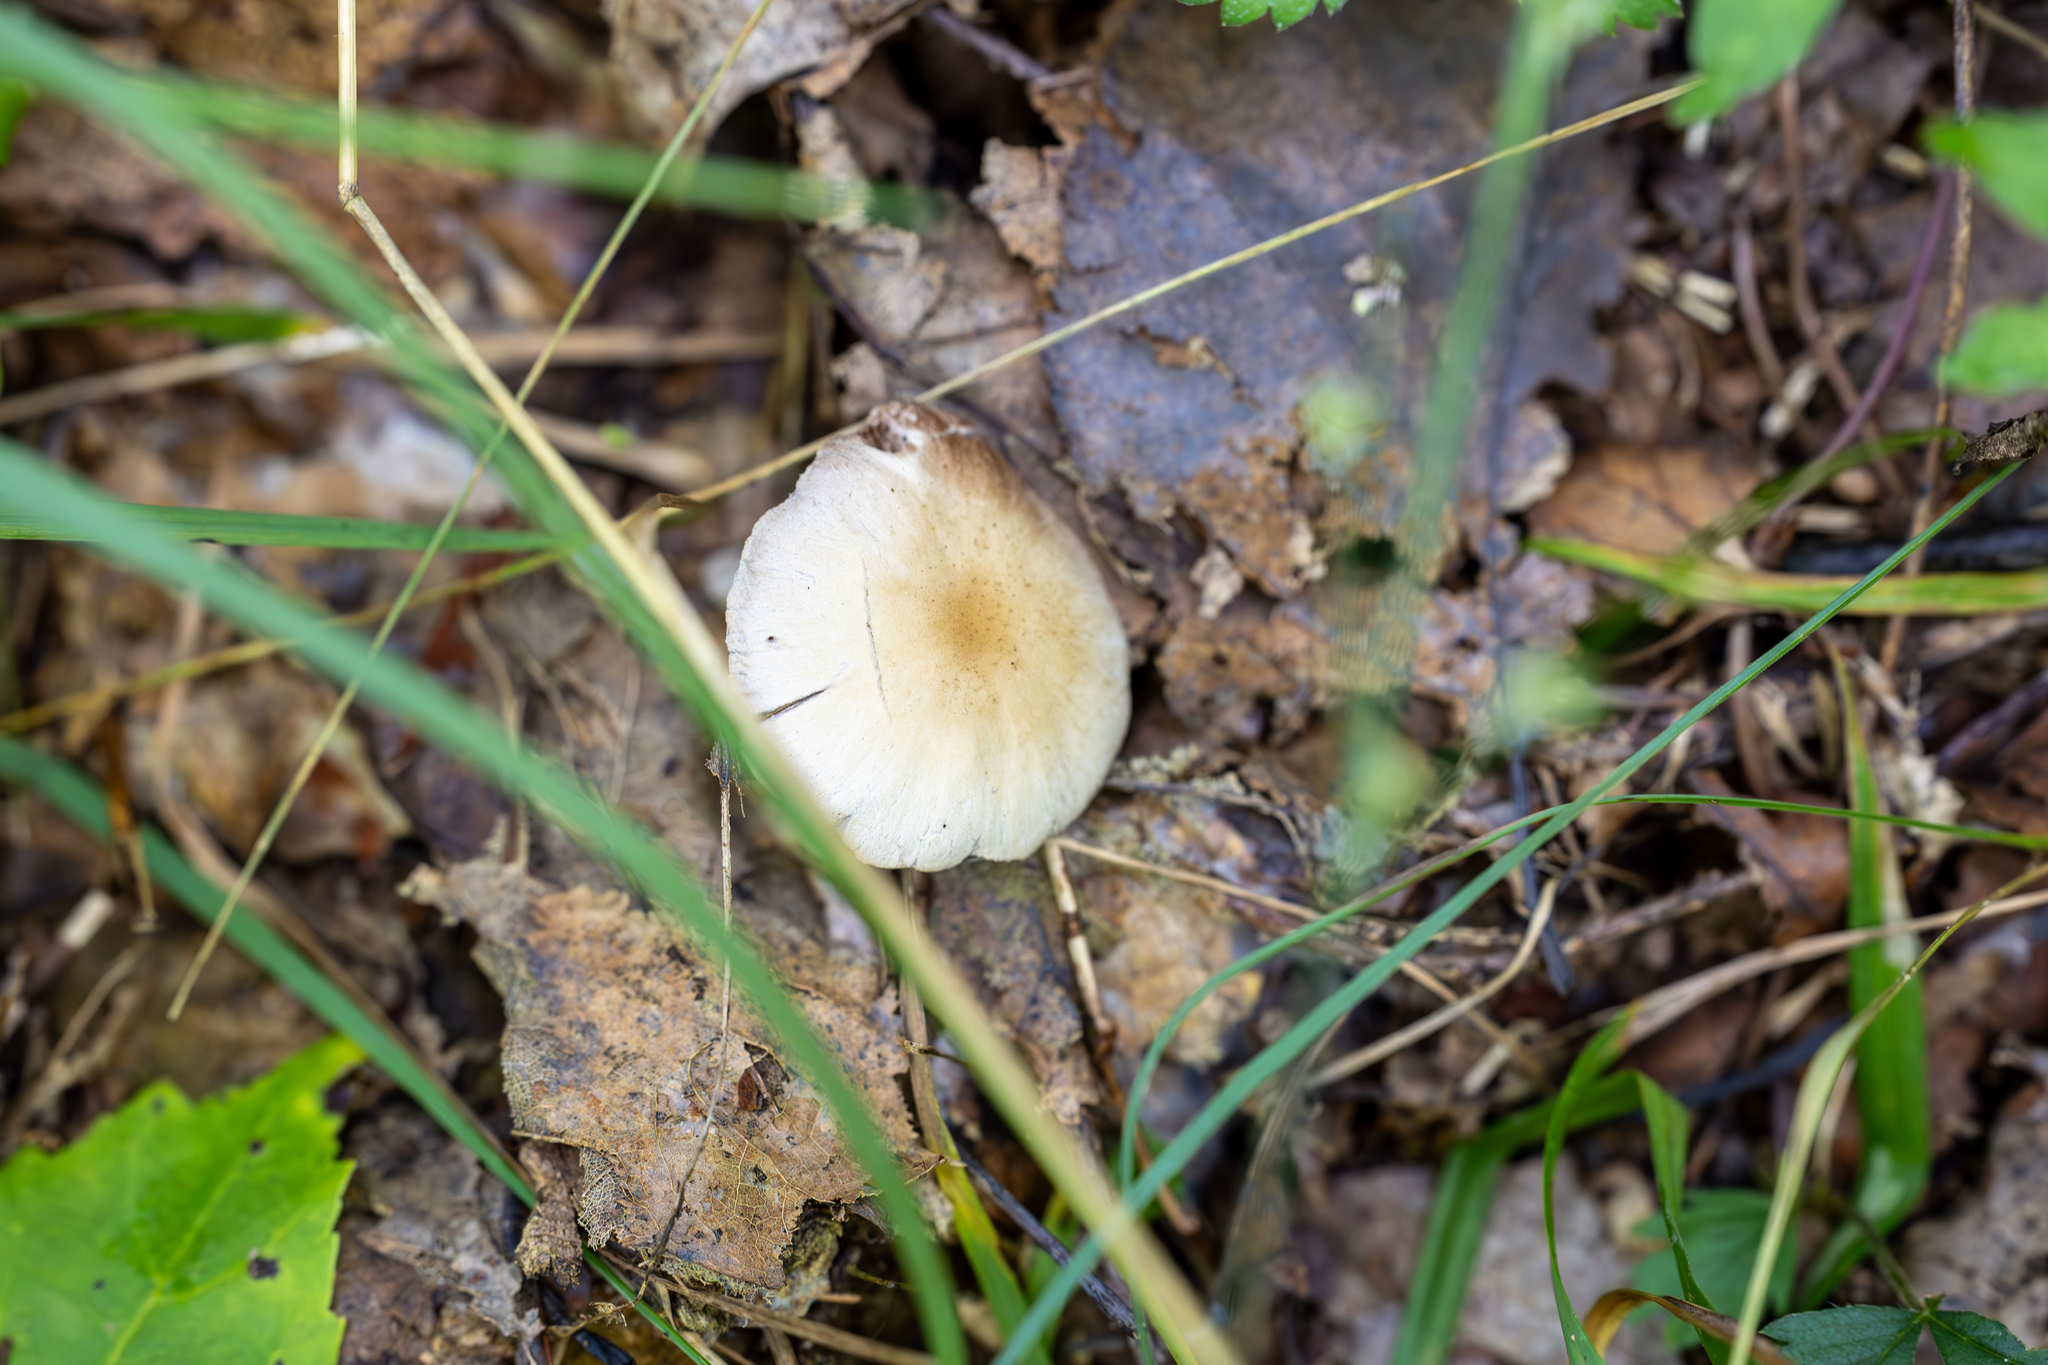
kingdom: Fungi
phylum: Basidiomycota
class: Agaricomycetes
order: Agaricales
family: Psathyrellaceae
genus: Candolleomyces
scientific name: Candolleomyces candolleanus
